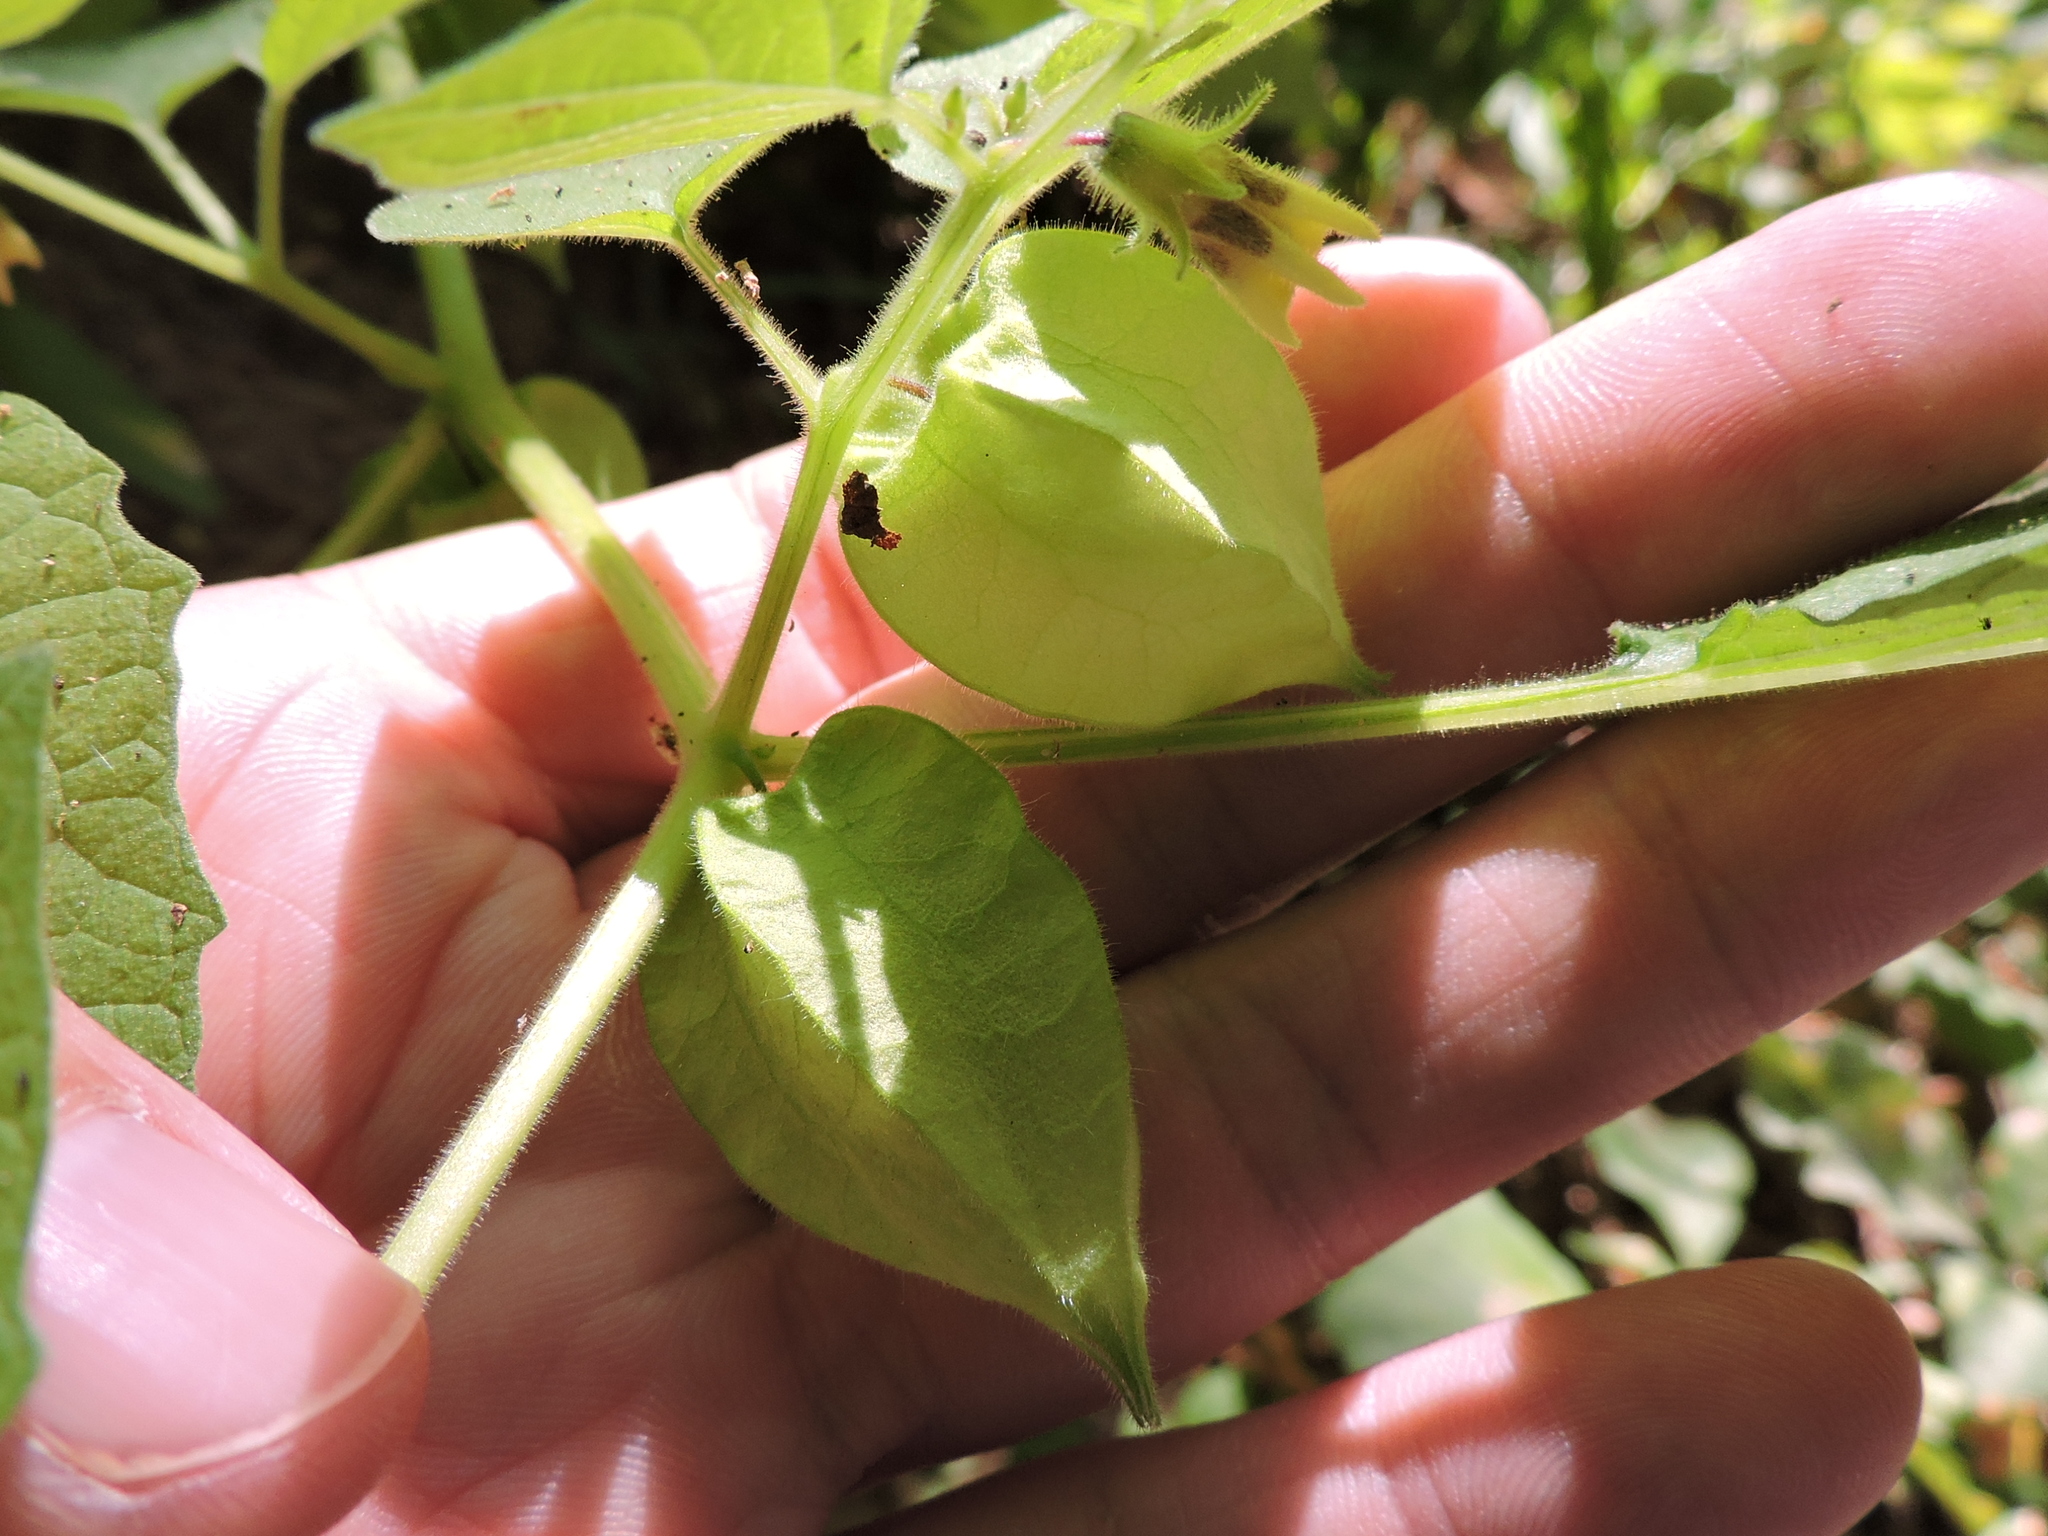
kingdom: Plantae
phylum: Tracheophyta
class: Magnoliopsida
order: Solanales
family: Solanaceae
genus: Physalis
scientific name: Physalis pubescens
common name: Downy ground-cherry
